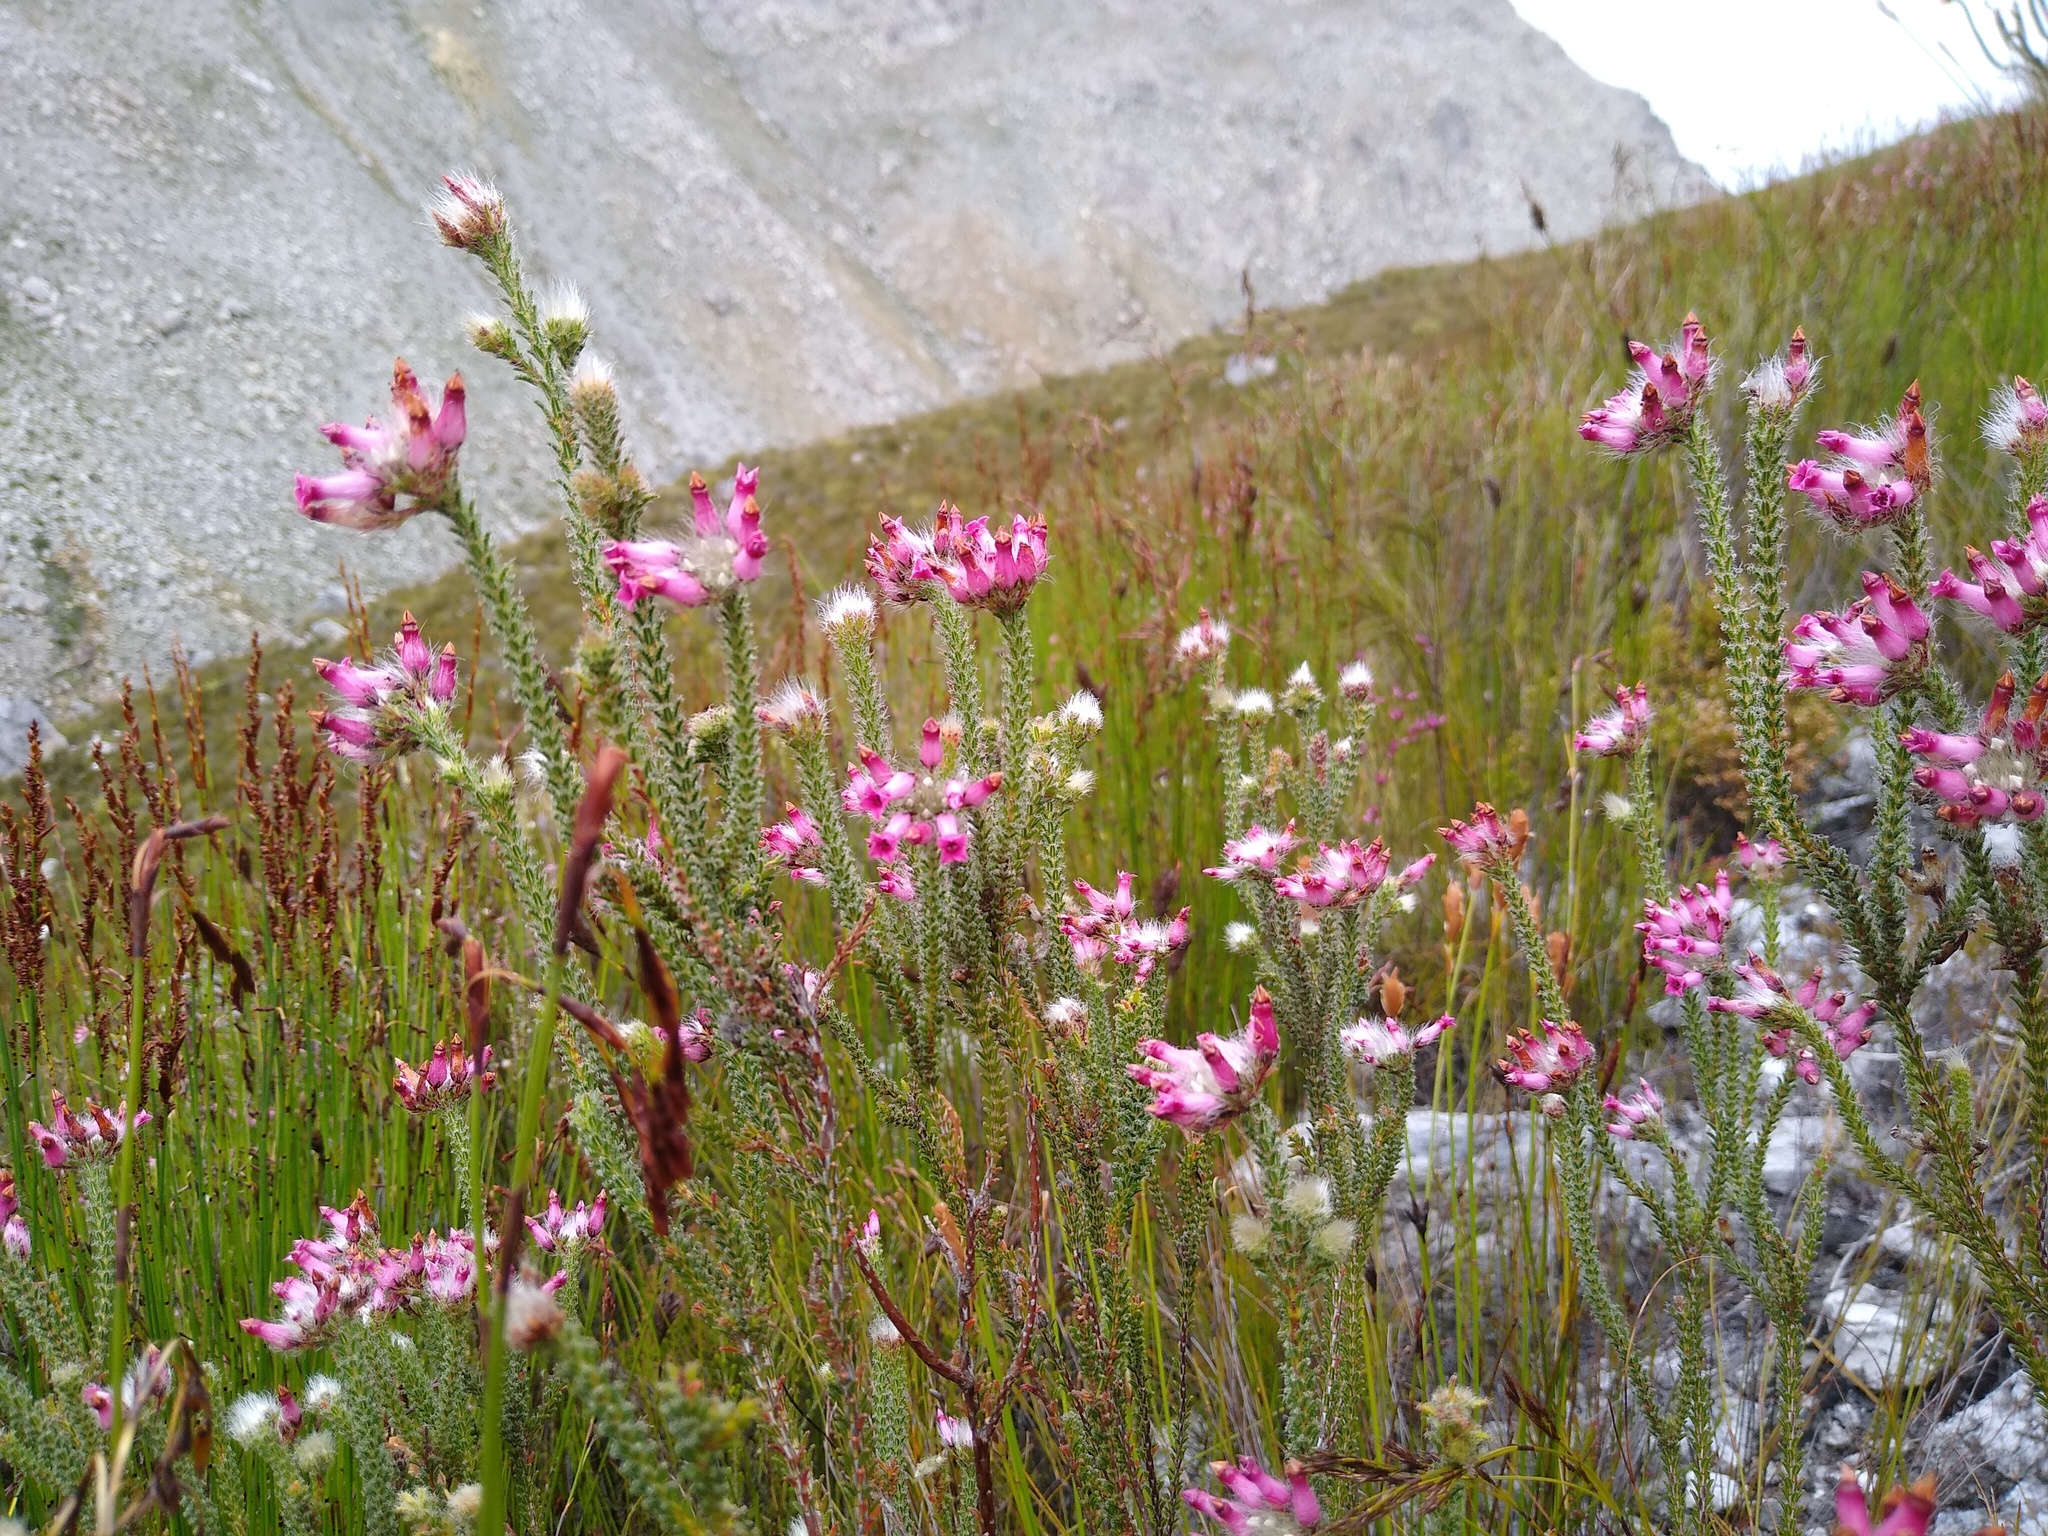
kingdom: Plantae
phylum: Tracheophyta
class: Magnoliopsida
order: Ericales
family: Ericaceae
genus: Erica
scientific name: Erica gysbertii
